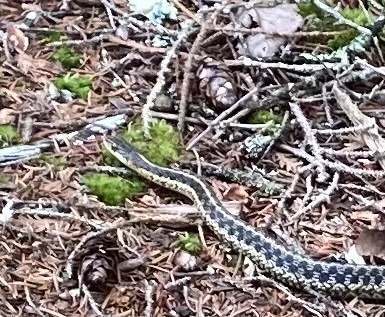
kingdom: Animalia
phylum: Chordata
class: Squamata
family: Colubridae
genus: Thamnophis
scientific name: Thamnophis sirtalis
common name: Common garter snake
